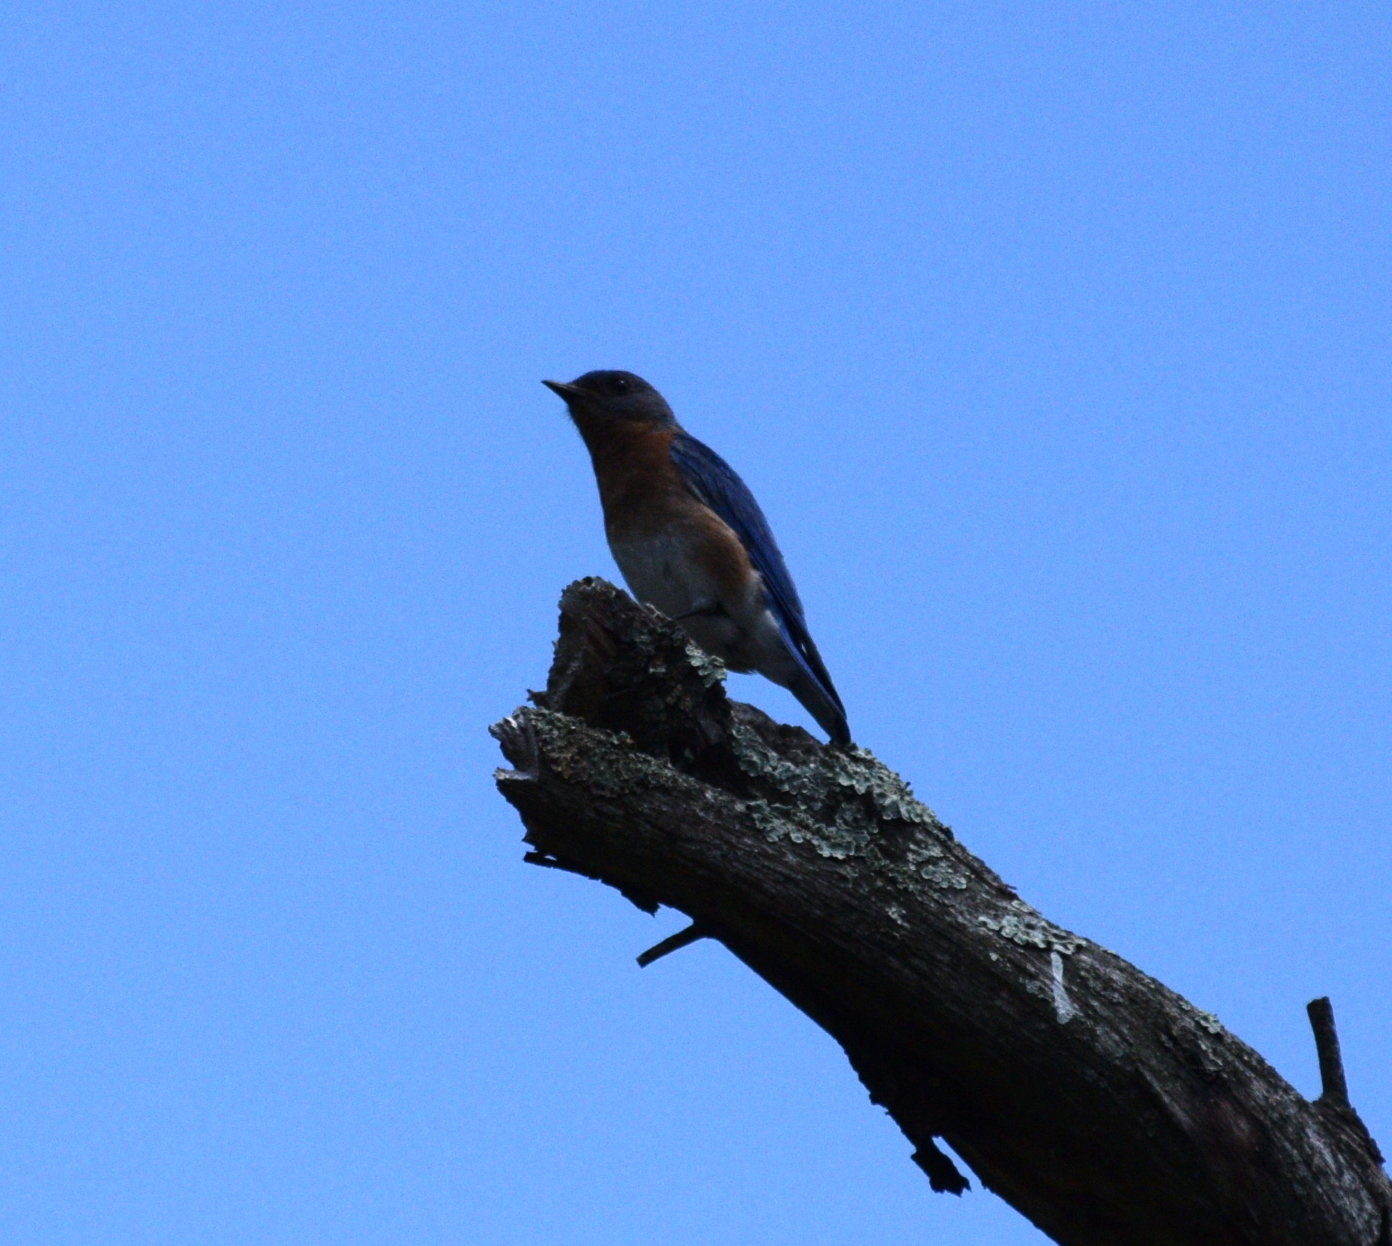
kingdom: Animalia
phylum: Chordata
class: Aves
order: Piciformes
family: Picidae
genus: Dryobates
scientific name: Dryobates pubescens
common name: Downy woodpecker
